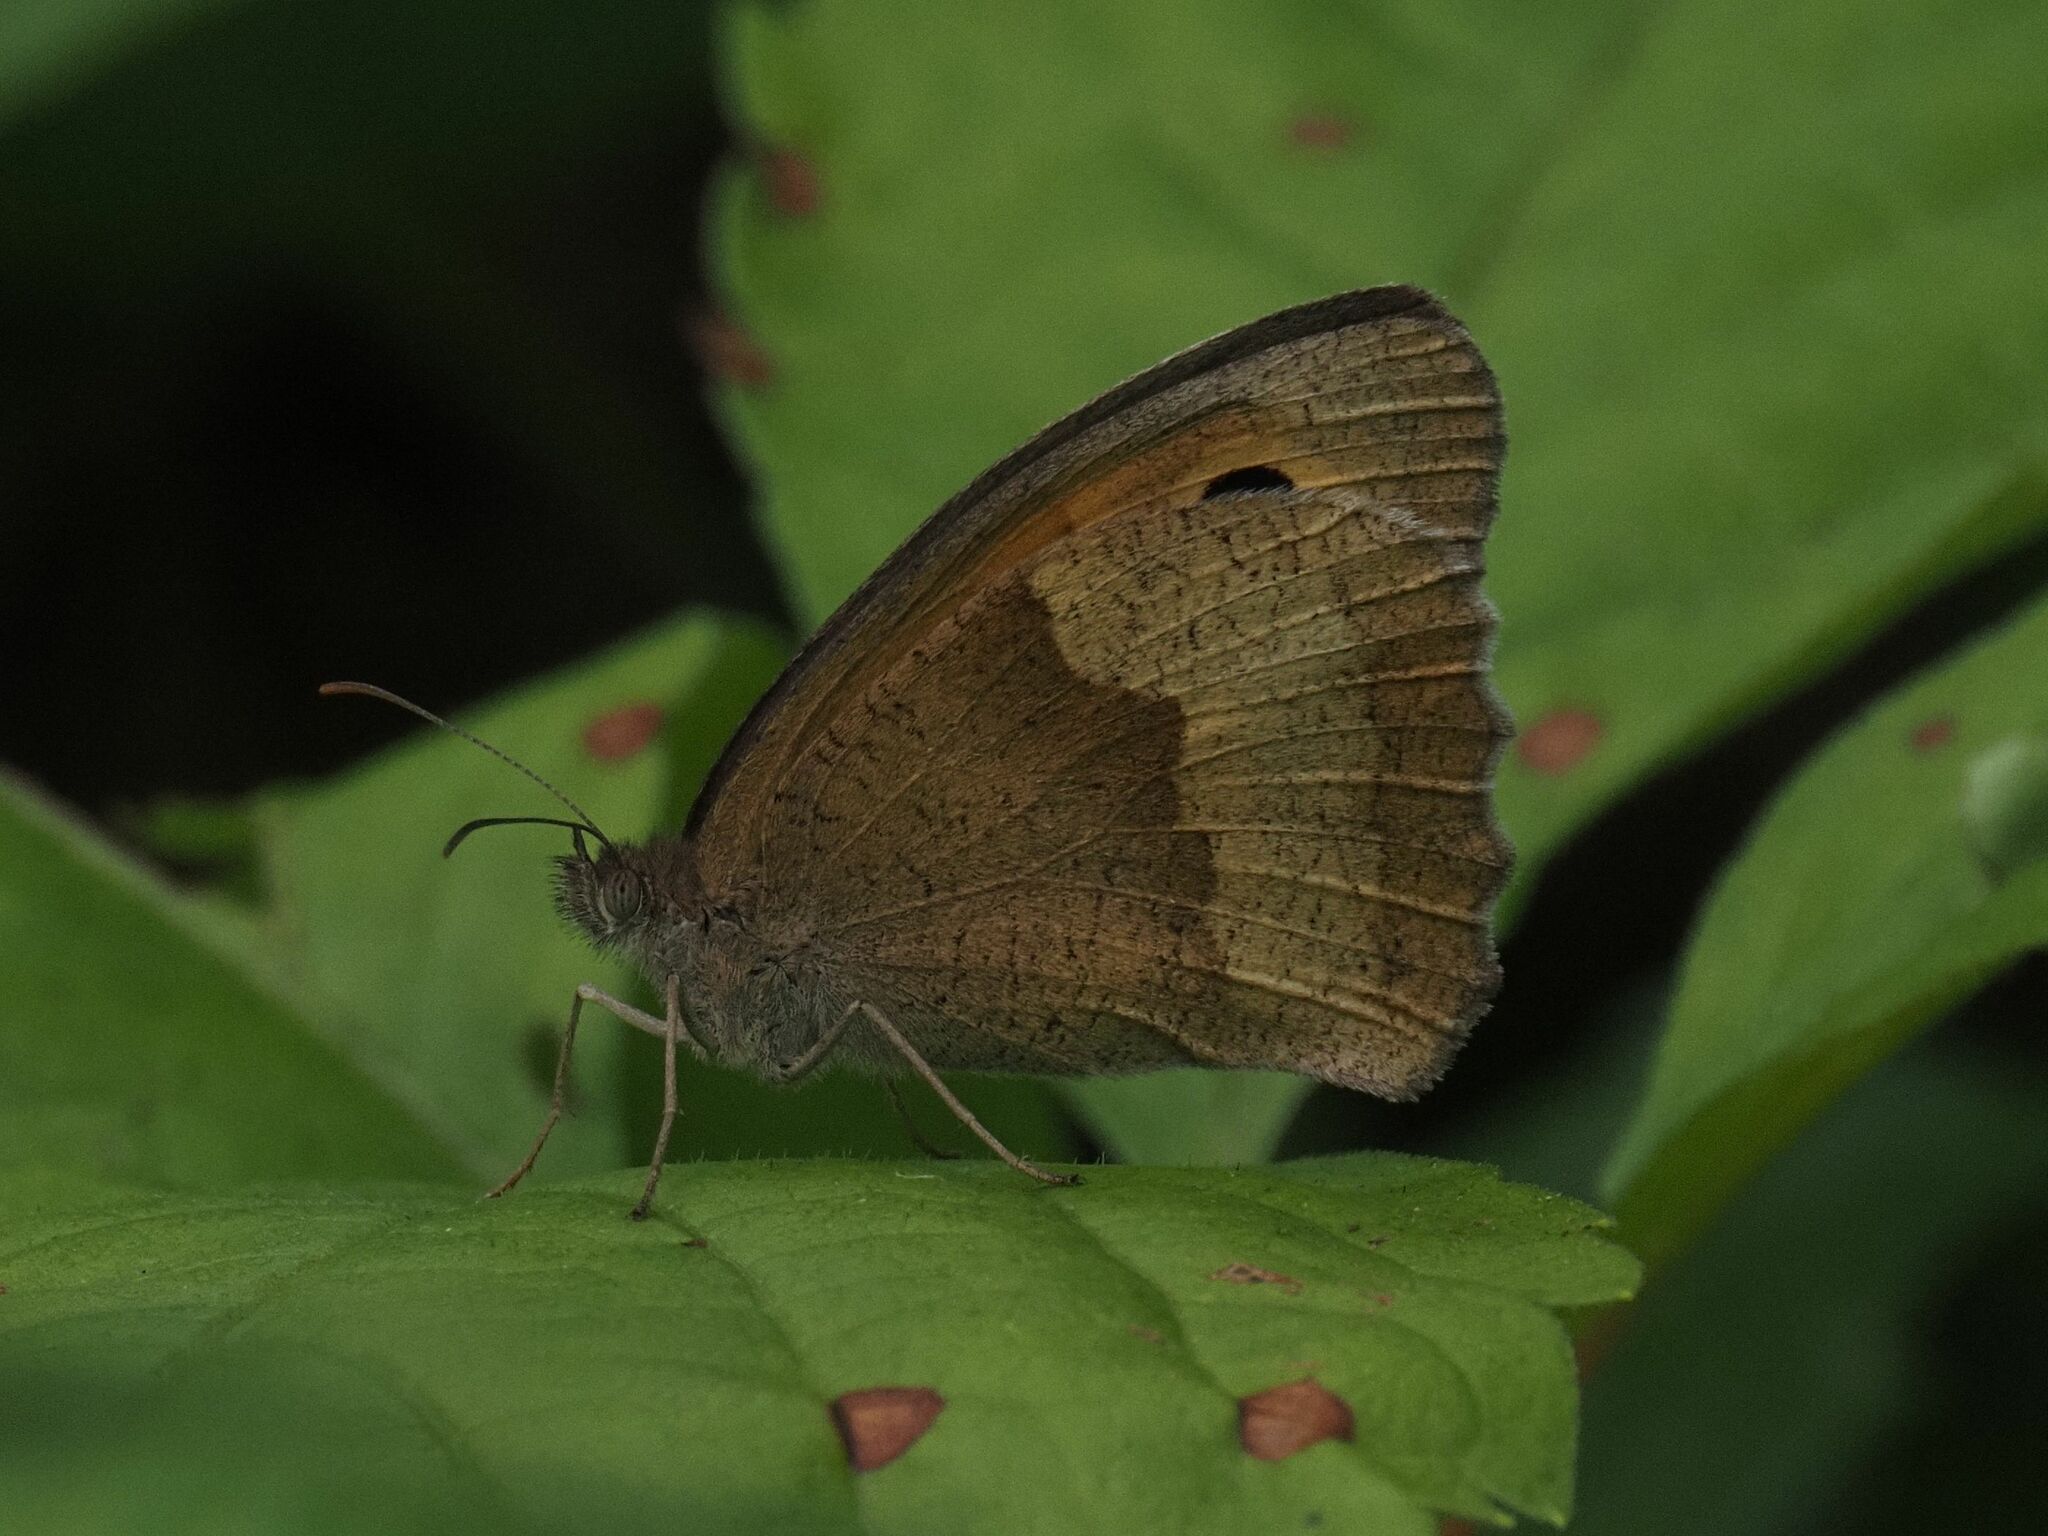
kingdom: Animalia
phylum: Arthropoda
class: Insecta
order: Lepidoptera
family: Nymphalidae
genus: Maniola
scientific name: Maniola jurtina
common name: Meadow brown
